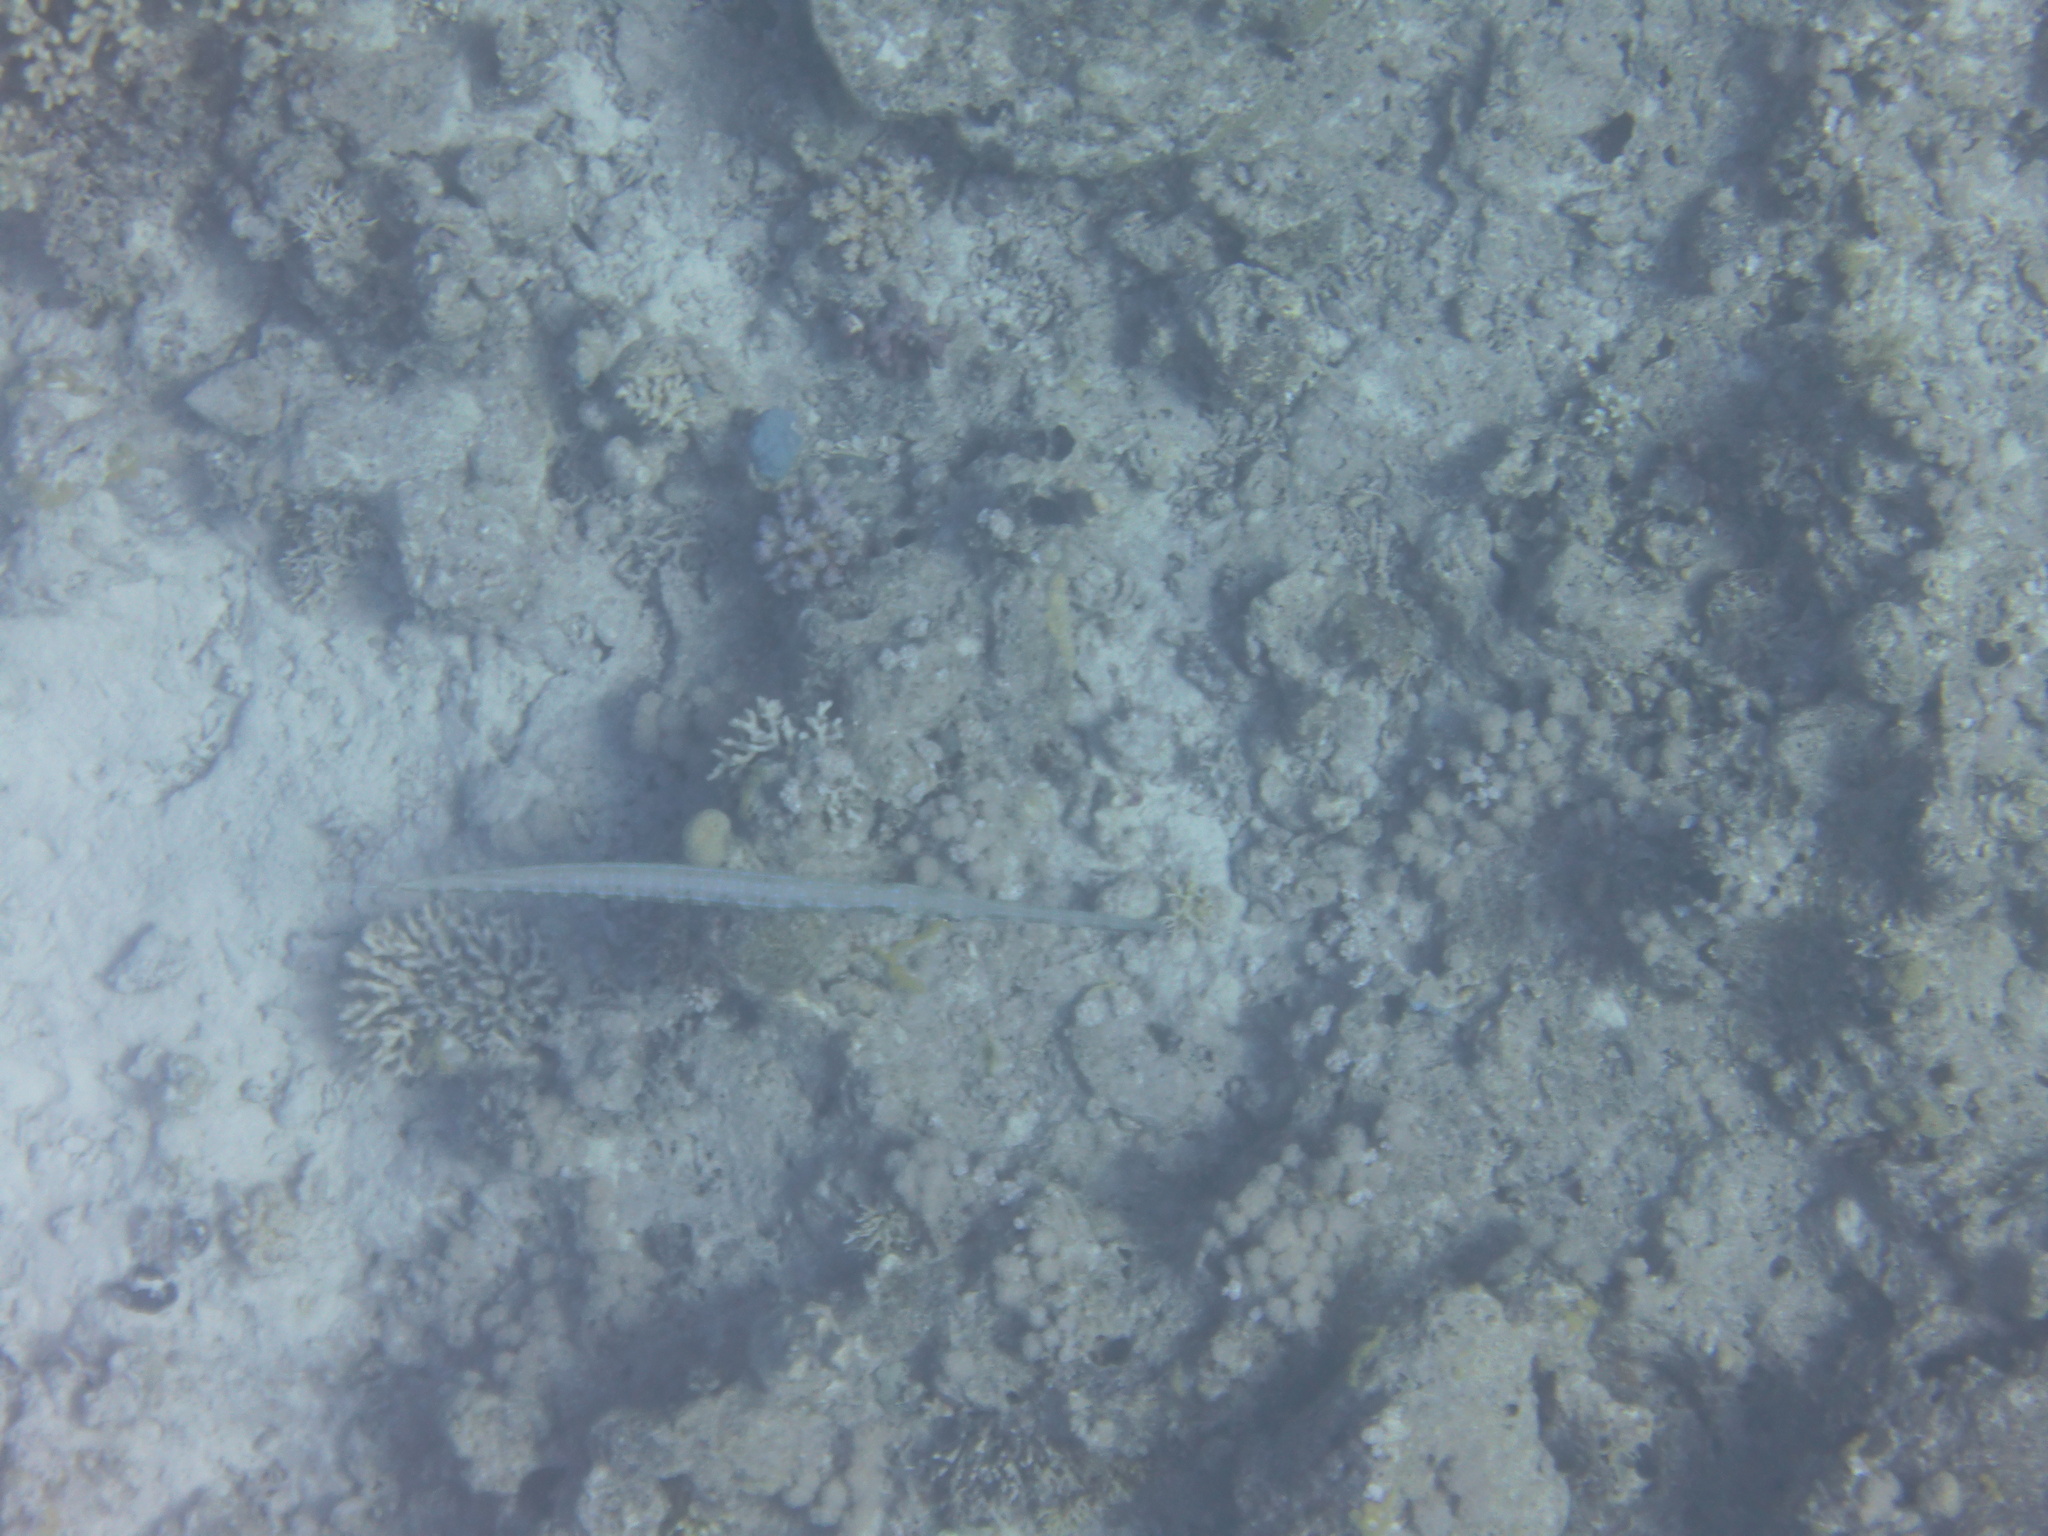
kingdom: Animalia
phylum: Chordata
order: Syngnathiformes
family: Fistulariidae
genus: Fistularia
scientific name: Fistularia commersonii
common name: Bluespotted cornetfish
